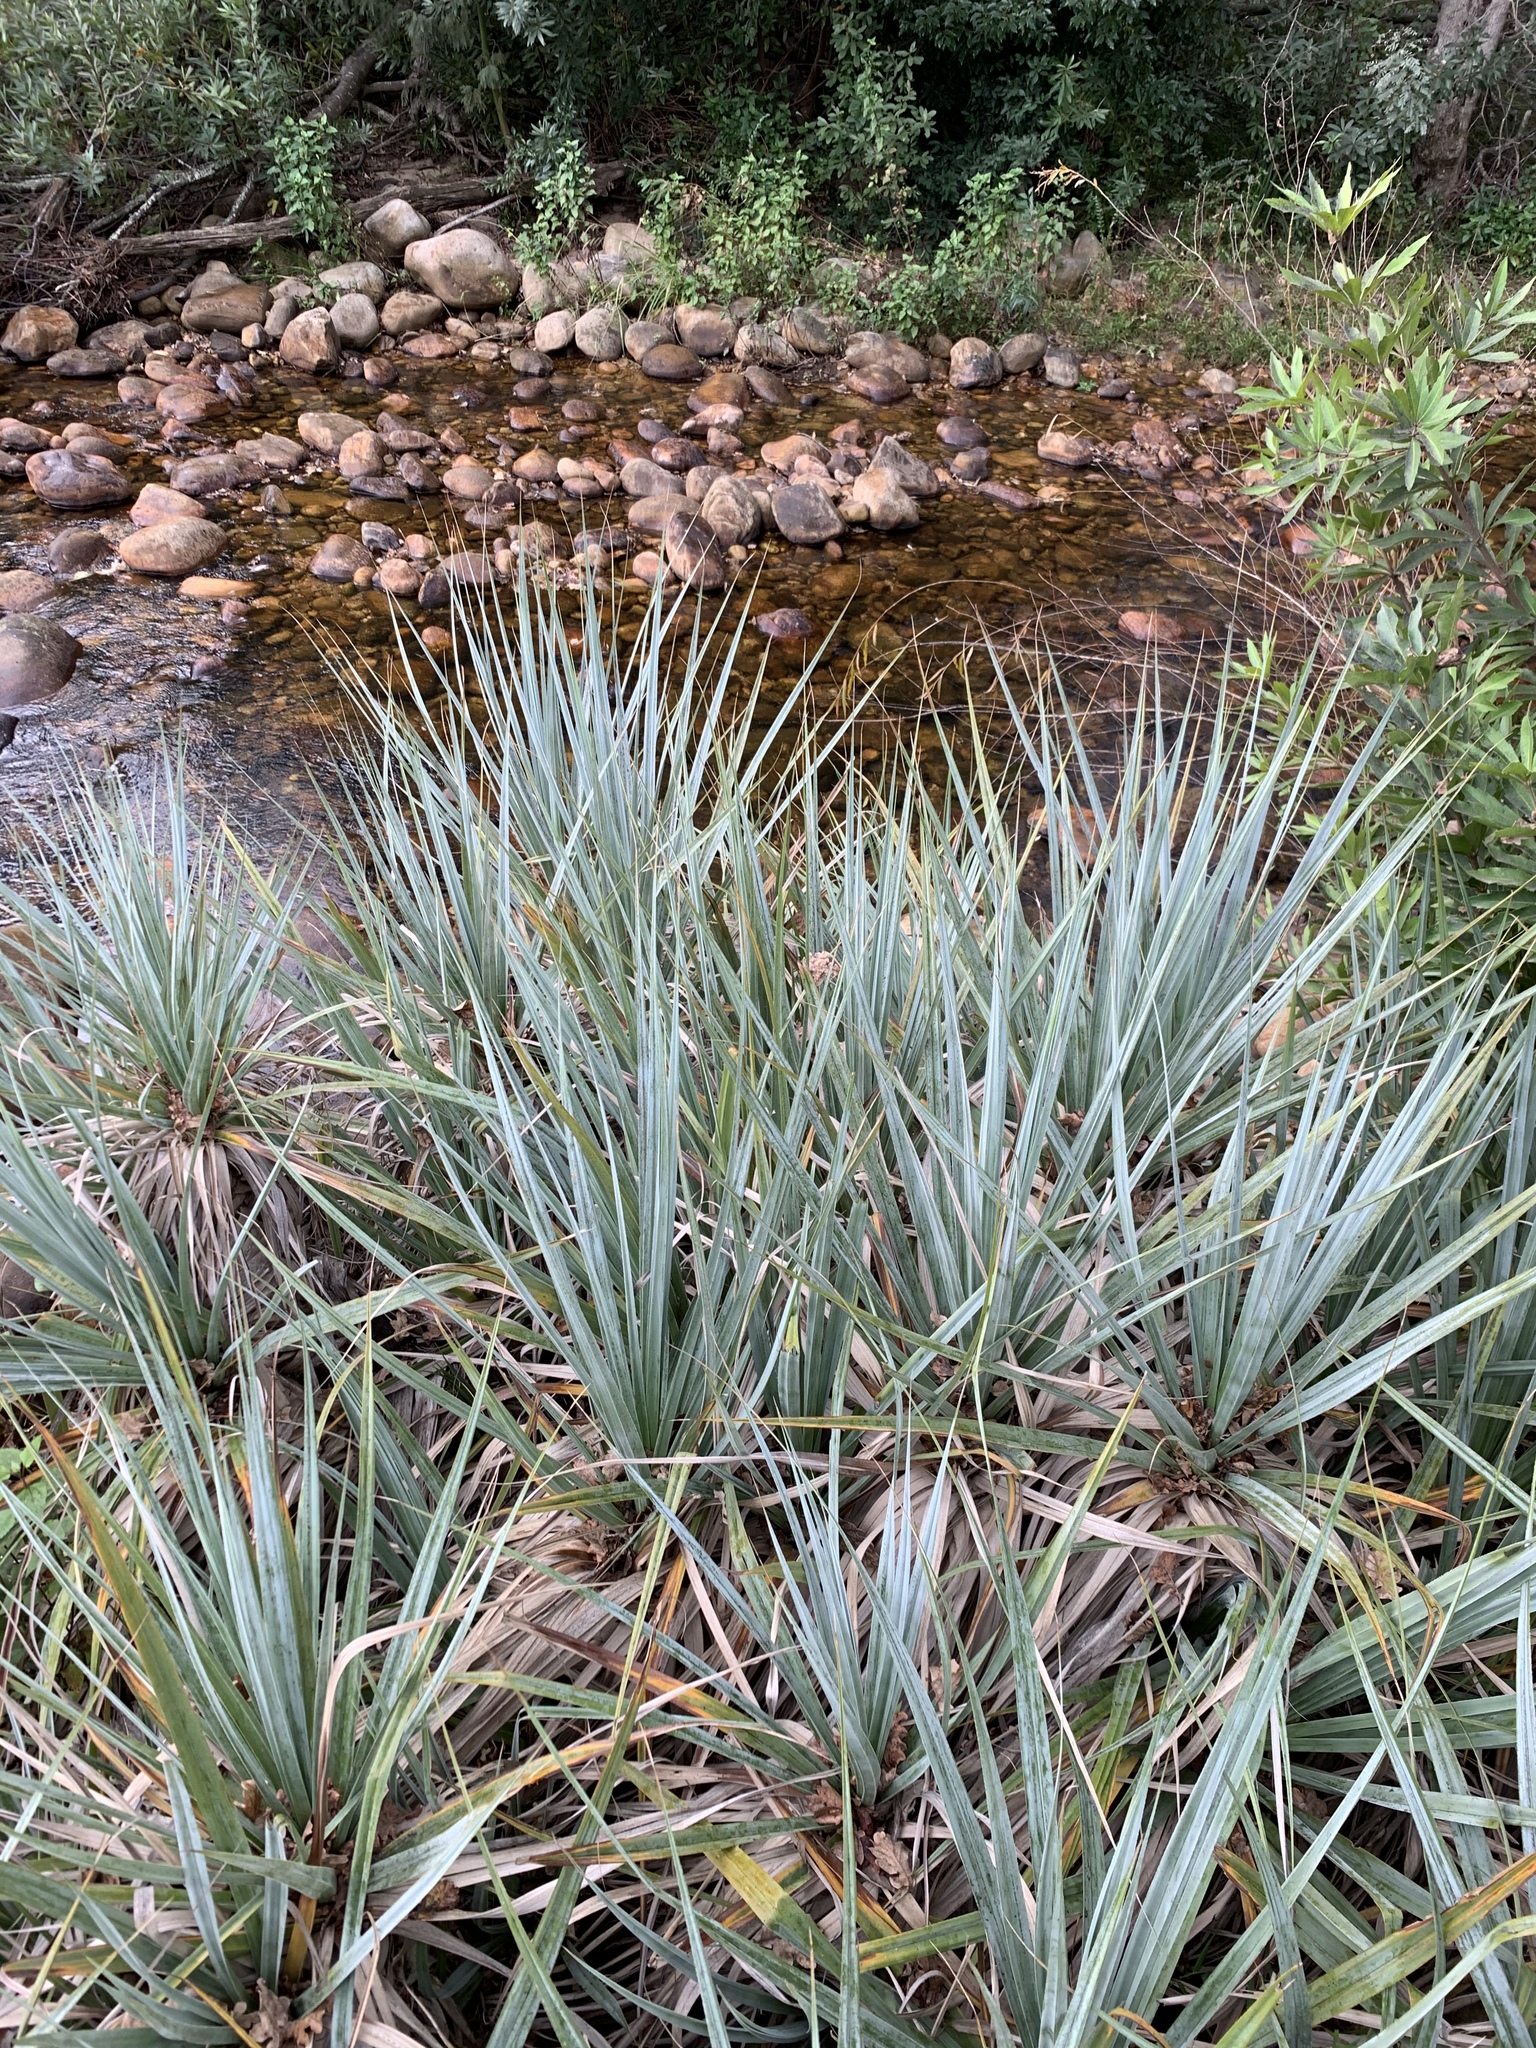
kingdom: Plantae
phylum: Tracheophyta
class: Liliopsida
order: Poales
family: Thurniaceae
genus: Prionium
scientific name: Prionium serratum
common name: Palmiet
